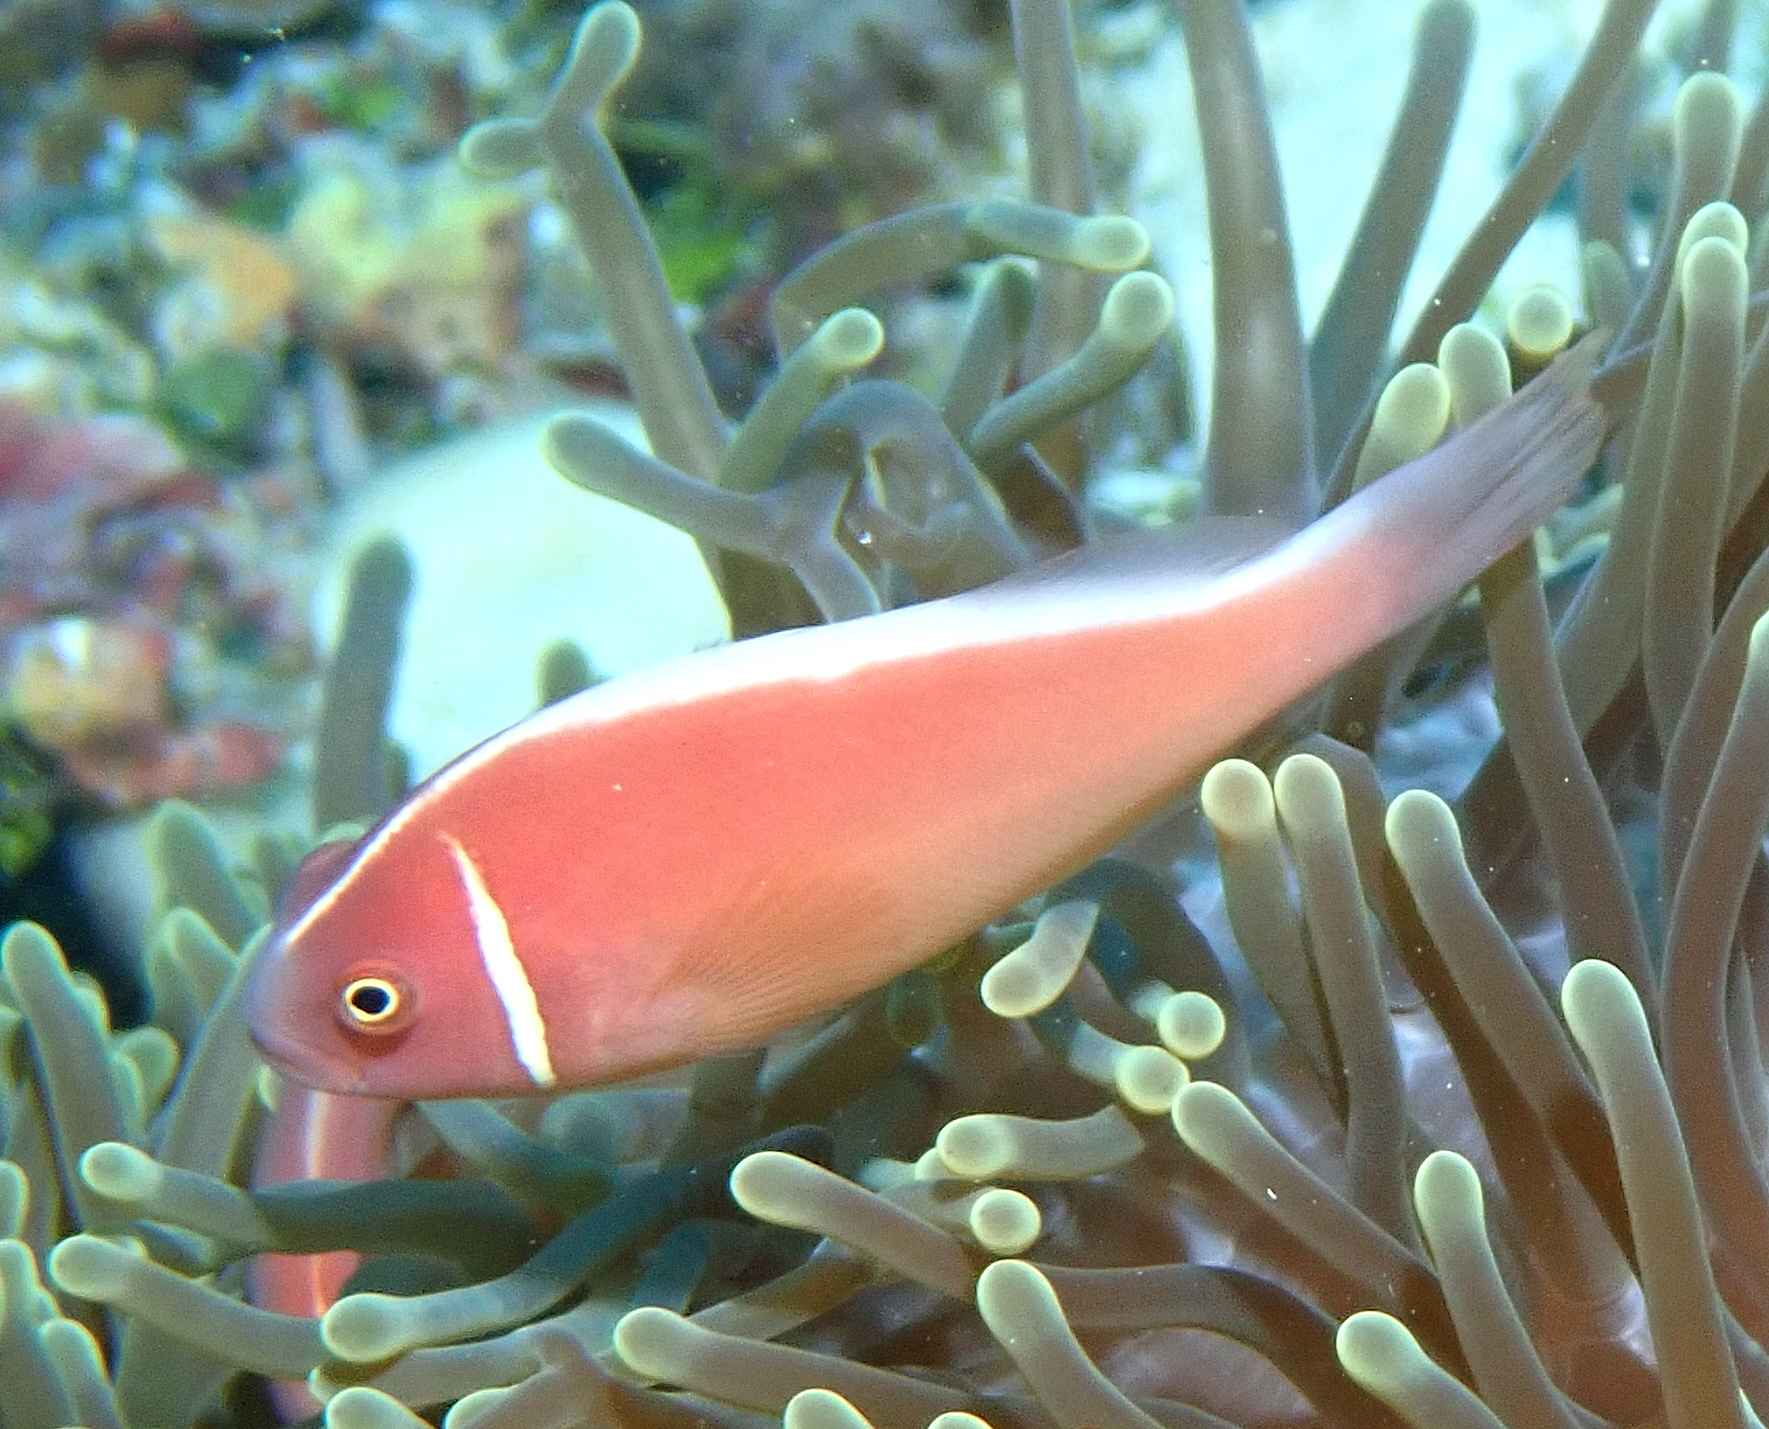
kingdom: Animalia
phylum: Chordata
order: Perciformes
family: Pomacentridae
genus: Amphiprion
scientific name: Amphiprion perideraion
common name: Pink anemonefish
